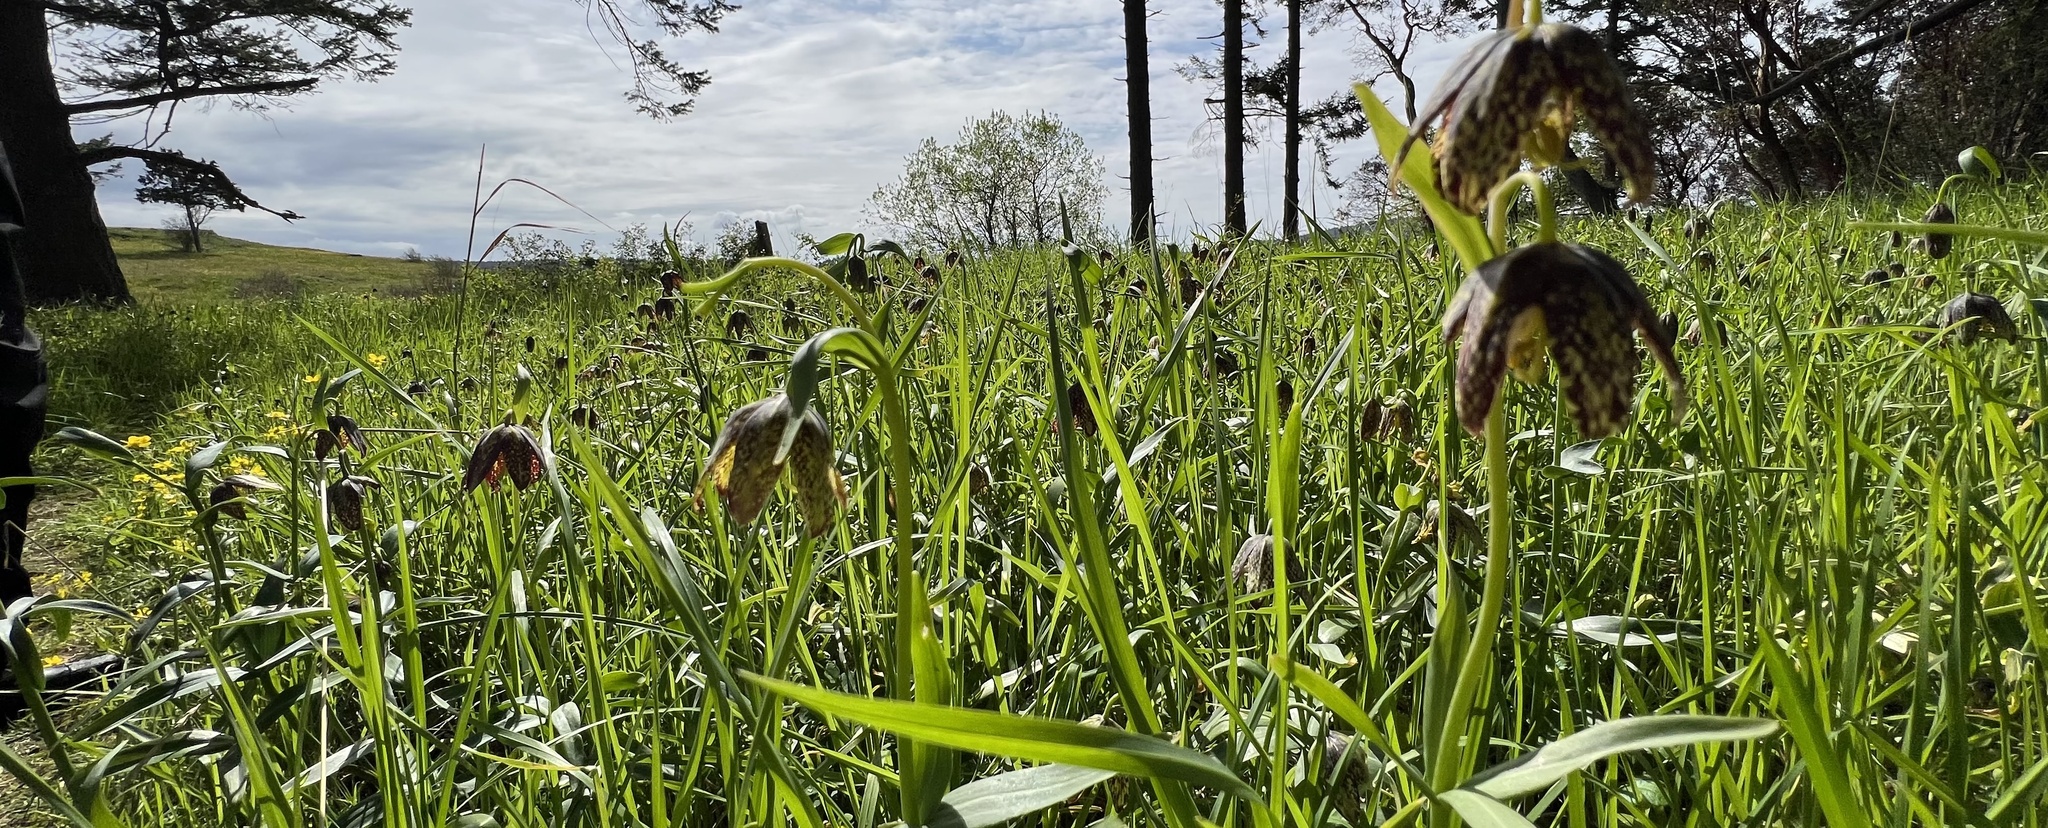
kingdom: Plantae
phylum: Tracheophyta
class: Liliopsida
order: Liliales
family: Liliaceae
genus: Fritillaria
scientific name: Fritillaria affinis
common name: Ojai fritillary
